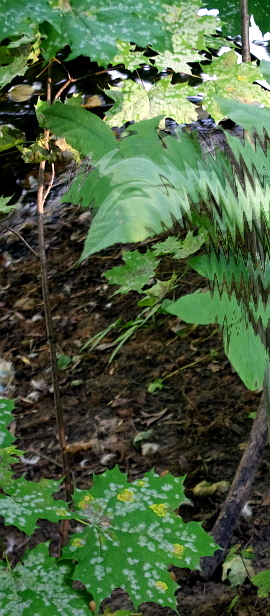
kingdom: Plantae
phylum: Tracheophyta
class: Magnoliopsida
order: Sapindales
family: Sapindaceae
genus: Acer
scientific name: Acer platanoides
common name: Norway maple
